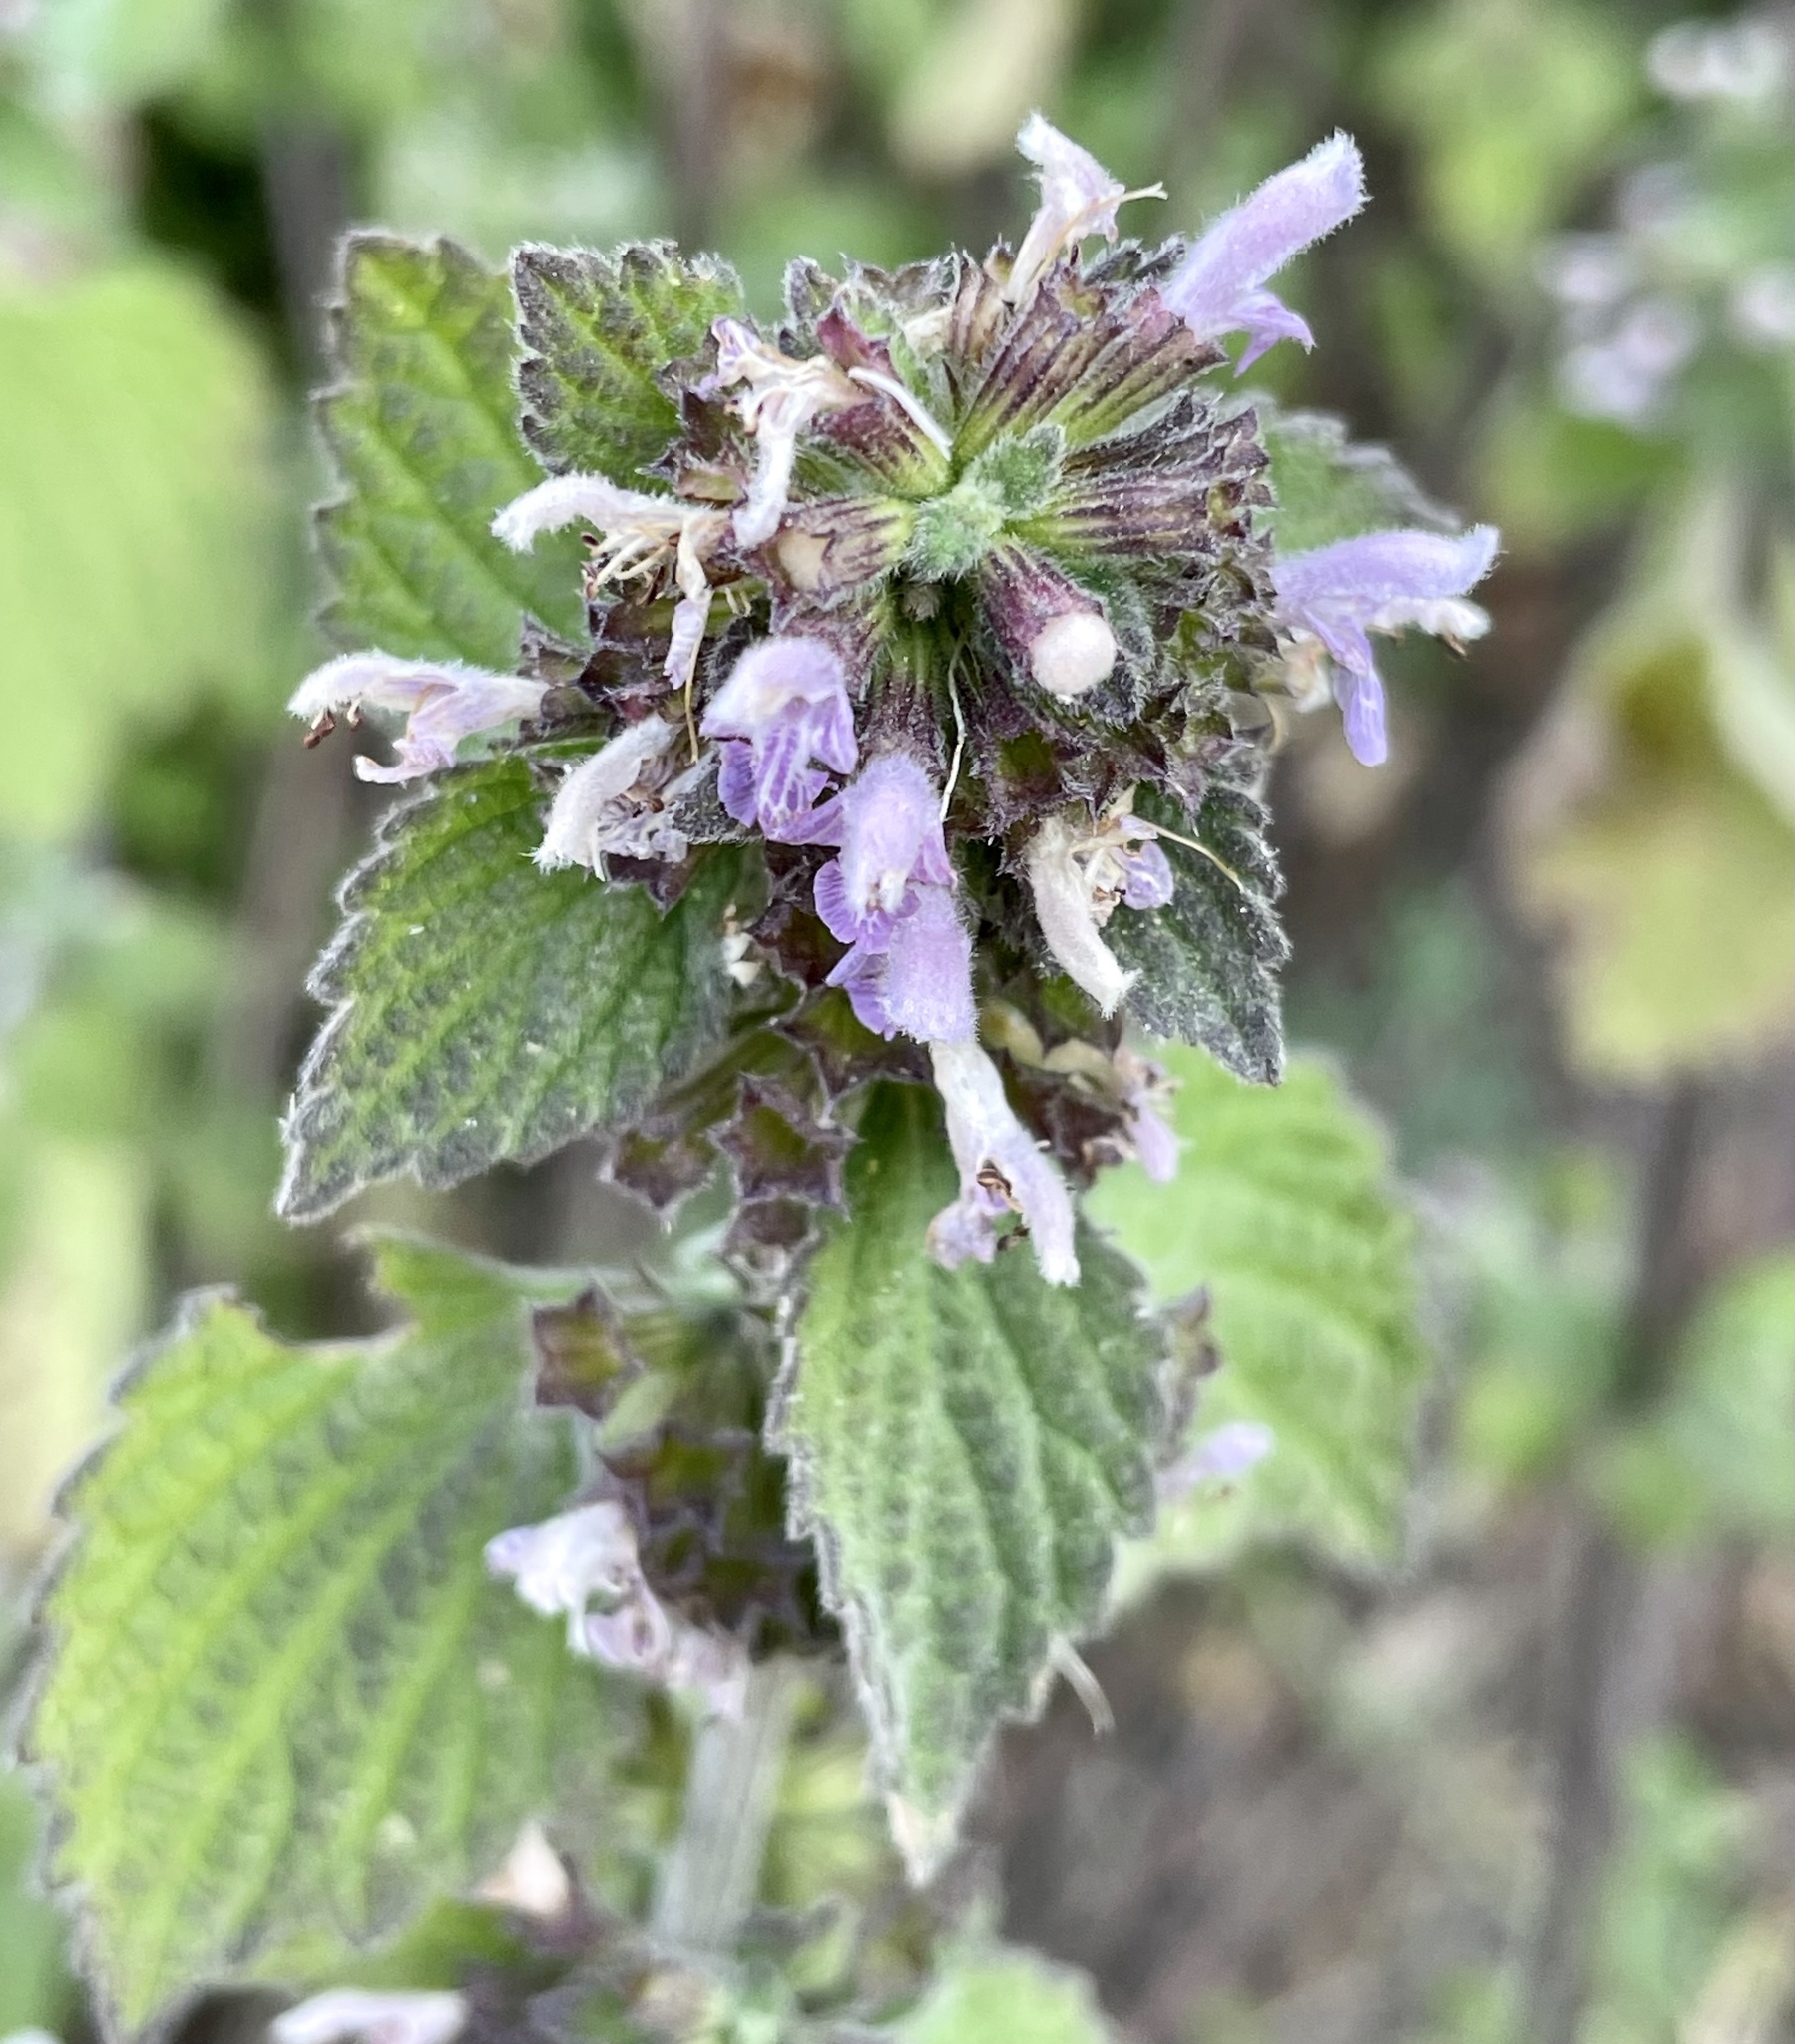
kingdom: Plantae
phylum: Tracheophyta
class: Magnoliopsida
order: Lamiales
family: Lamiaceae
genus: Ballota
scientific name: Ballota nigra
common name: Black horehound
